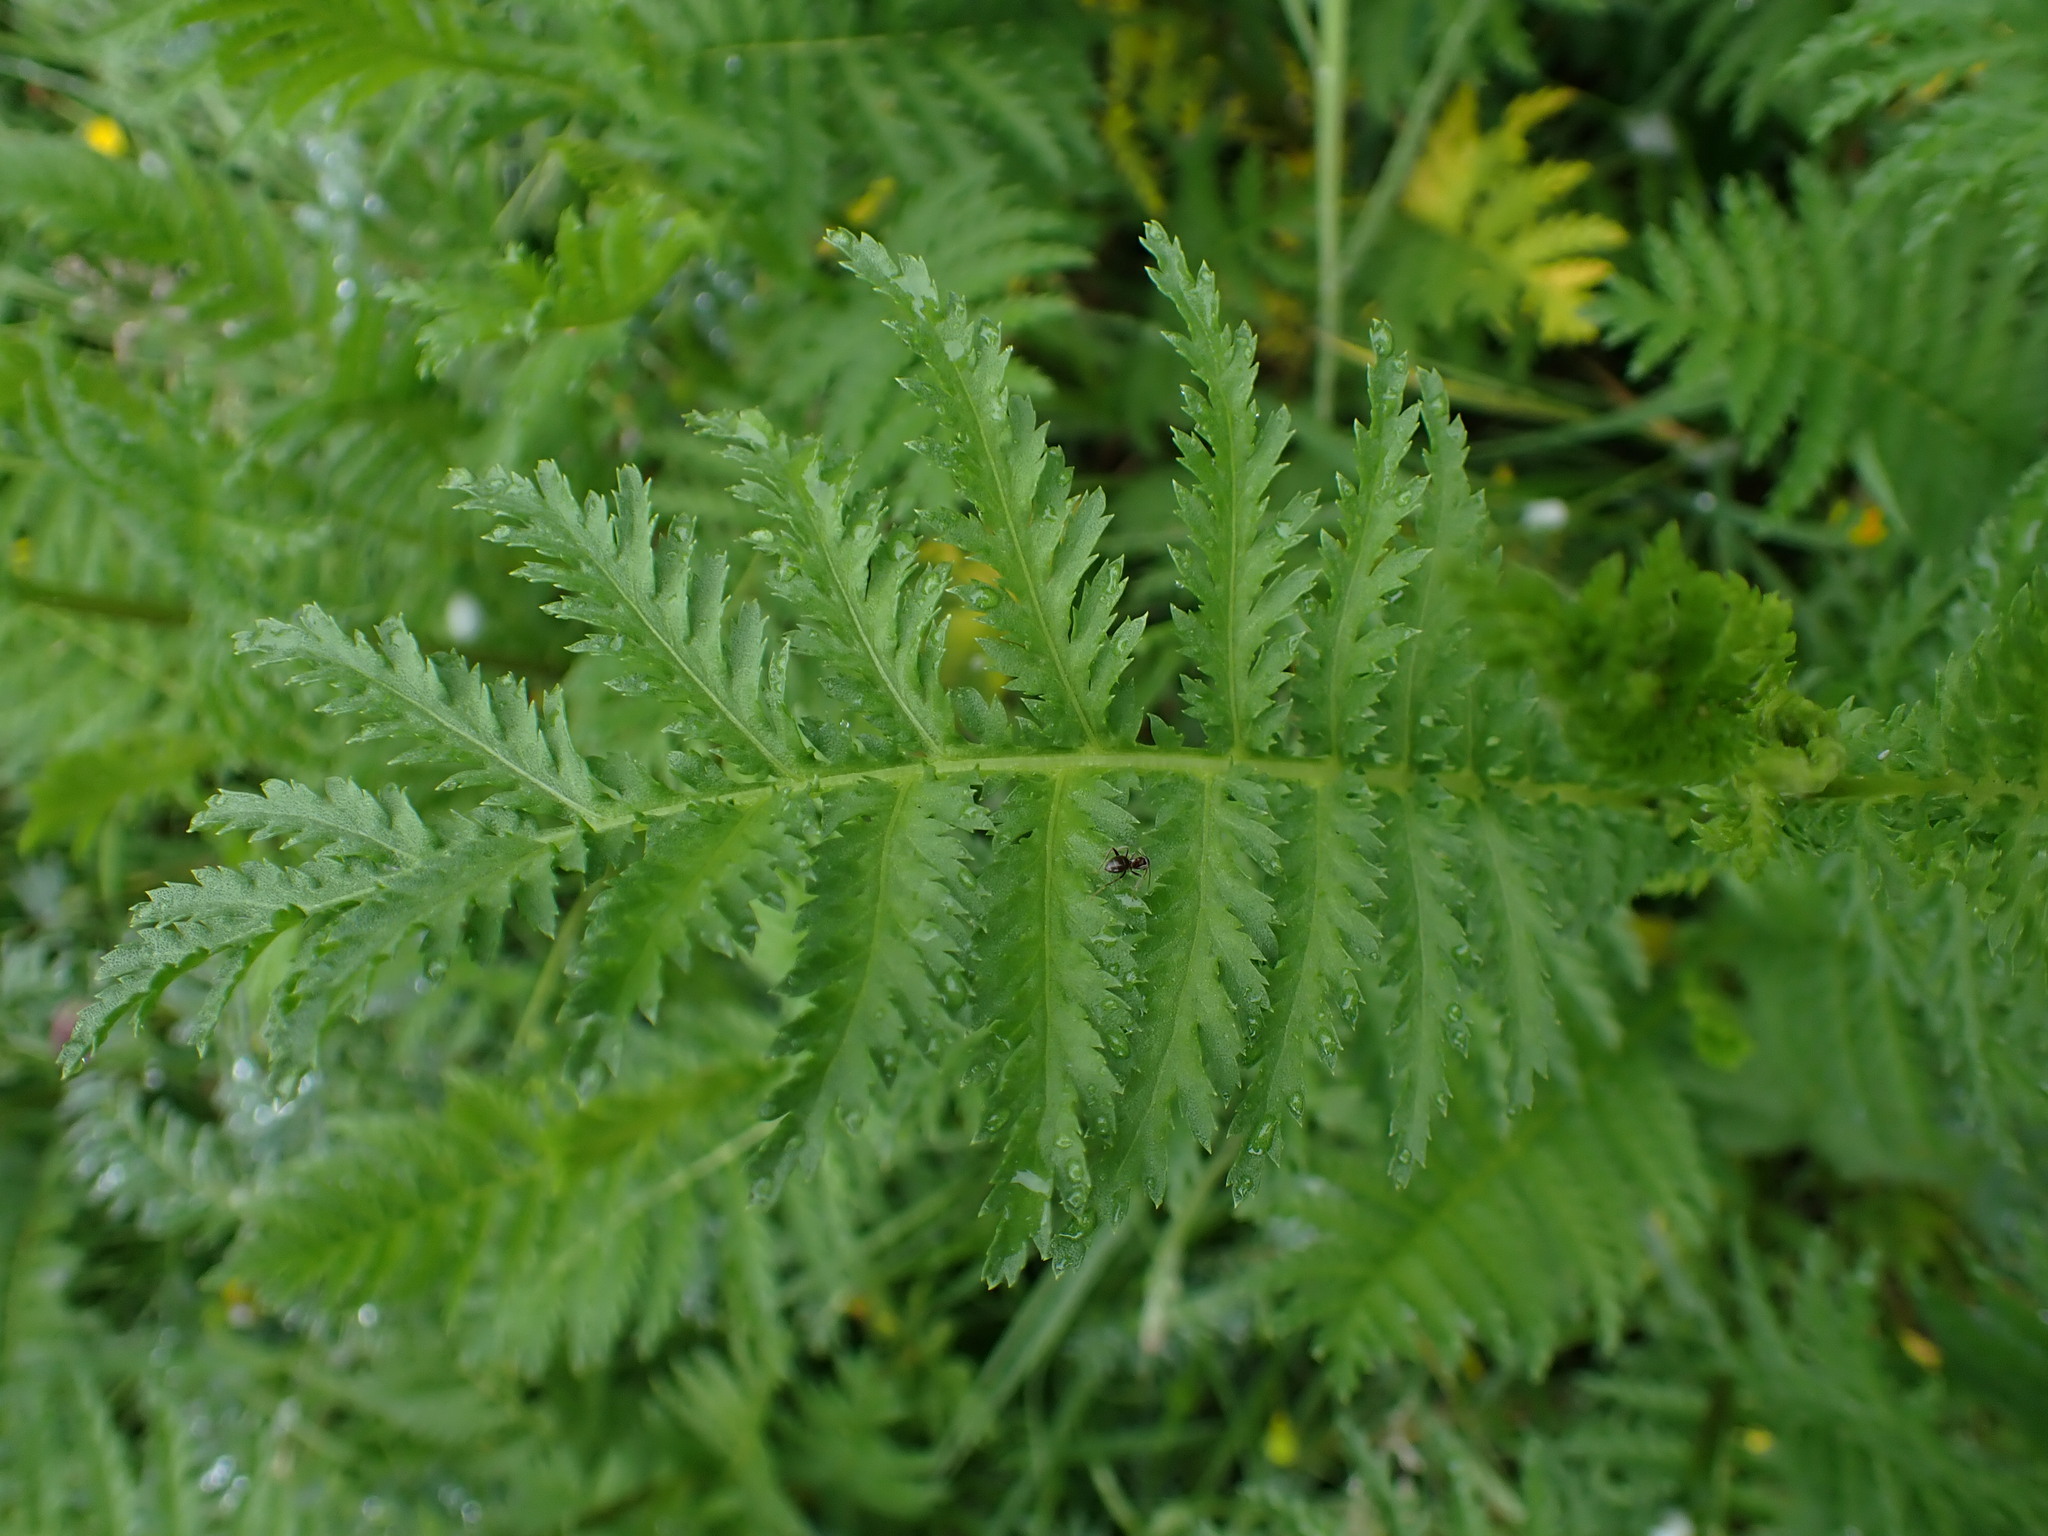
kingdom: Plantae
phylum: Tracheophyta
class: Magnoliopsida
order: Asterales
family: Asteraceae
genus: Tanacetum
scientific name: Tanacetum vulgare
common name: Common tansy
